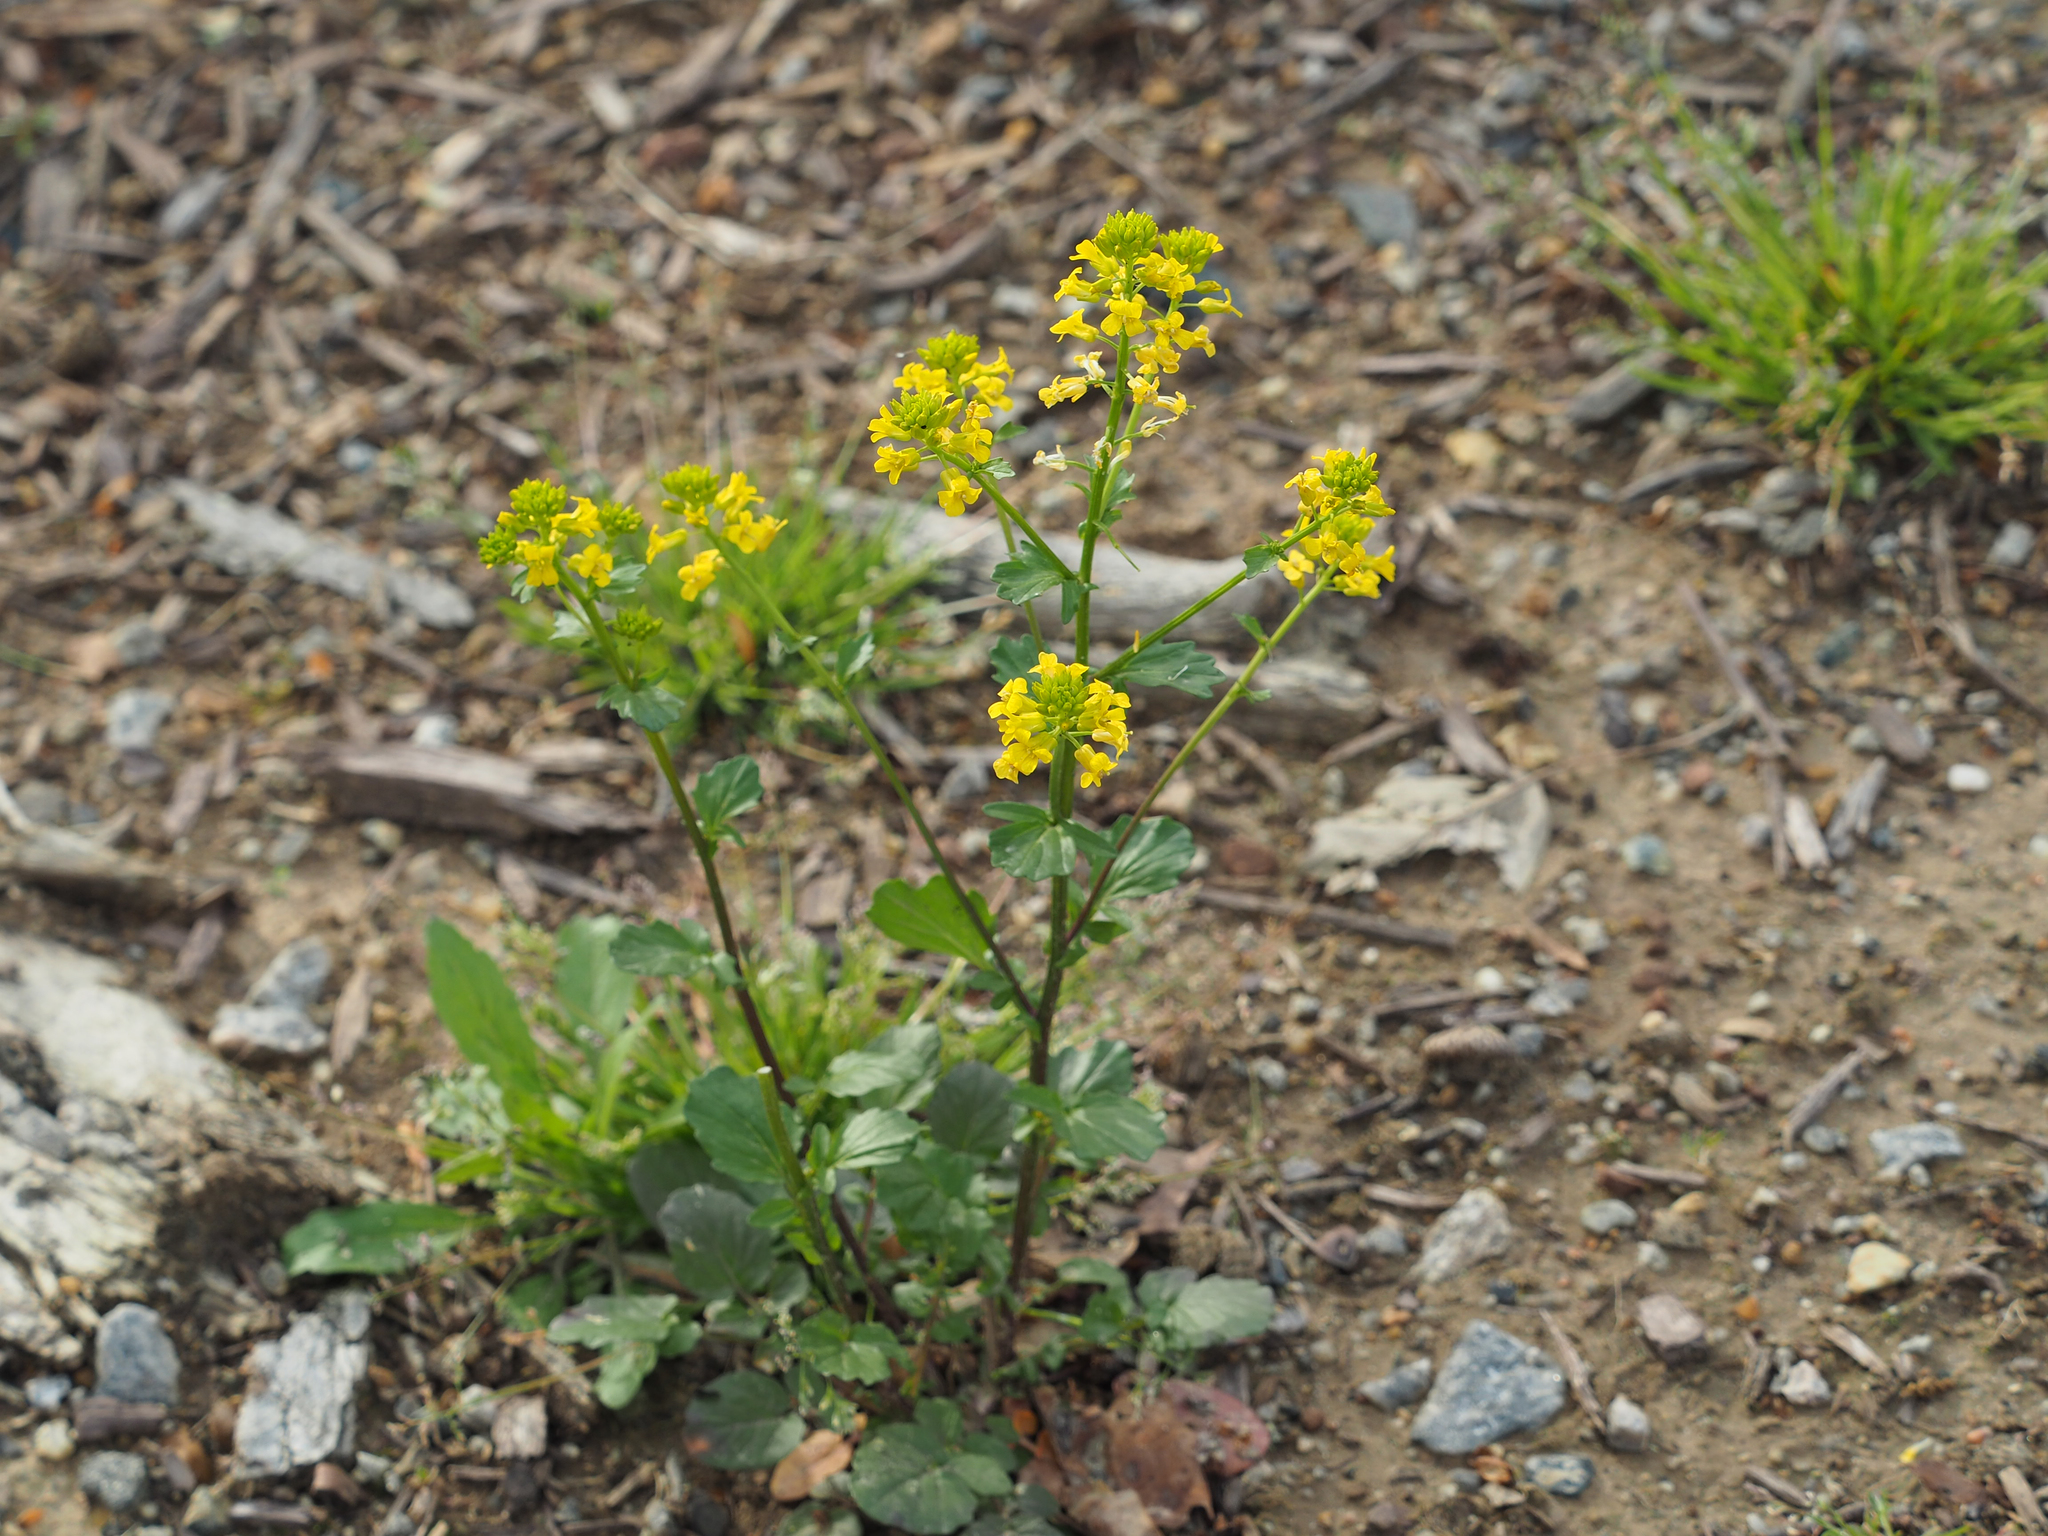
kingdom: Plantae
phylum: Tracheophyta
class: Magnoliopsida
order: Brassicales
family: Brassicaceae
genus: Barbarea
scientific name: Barbarea vulgaris
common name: Cressy-greens
